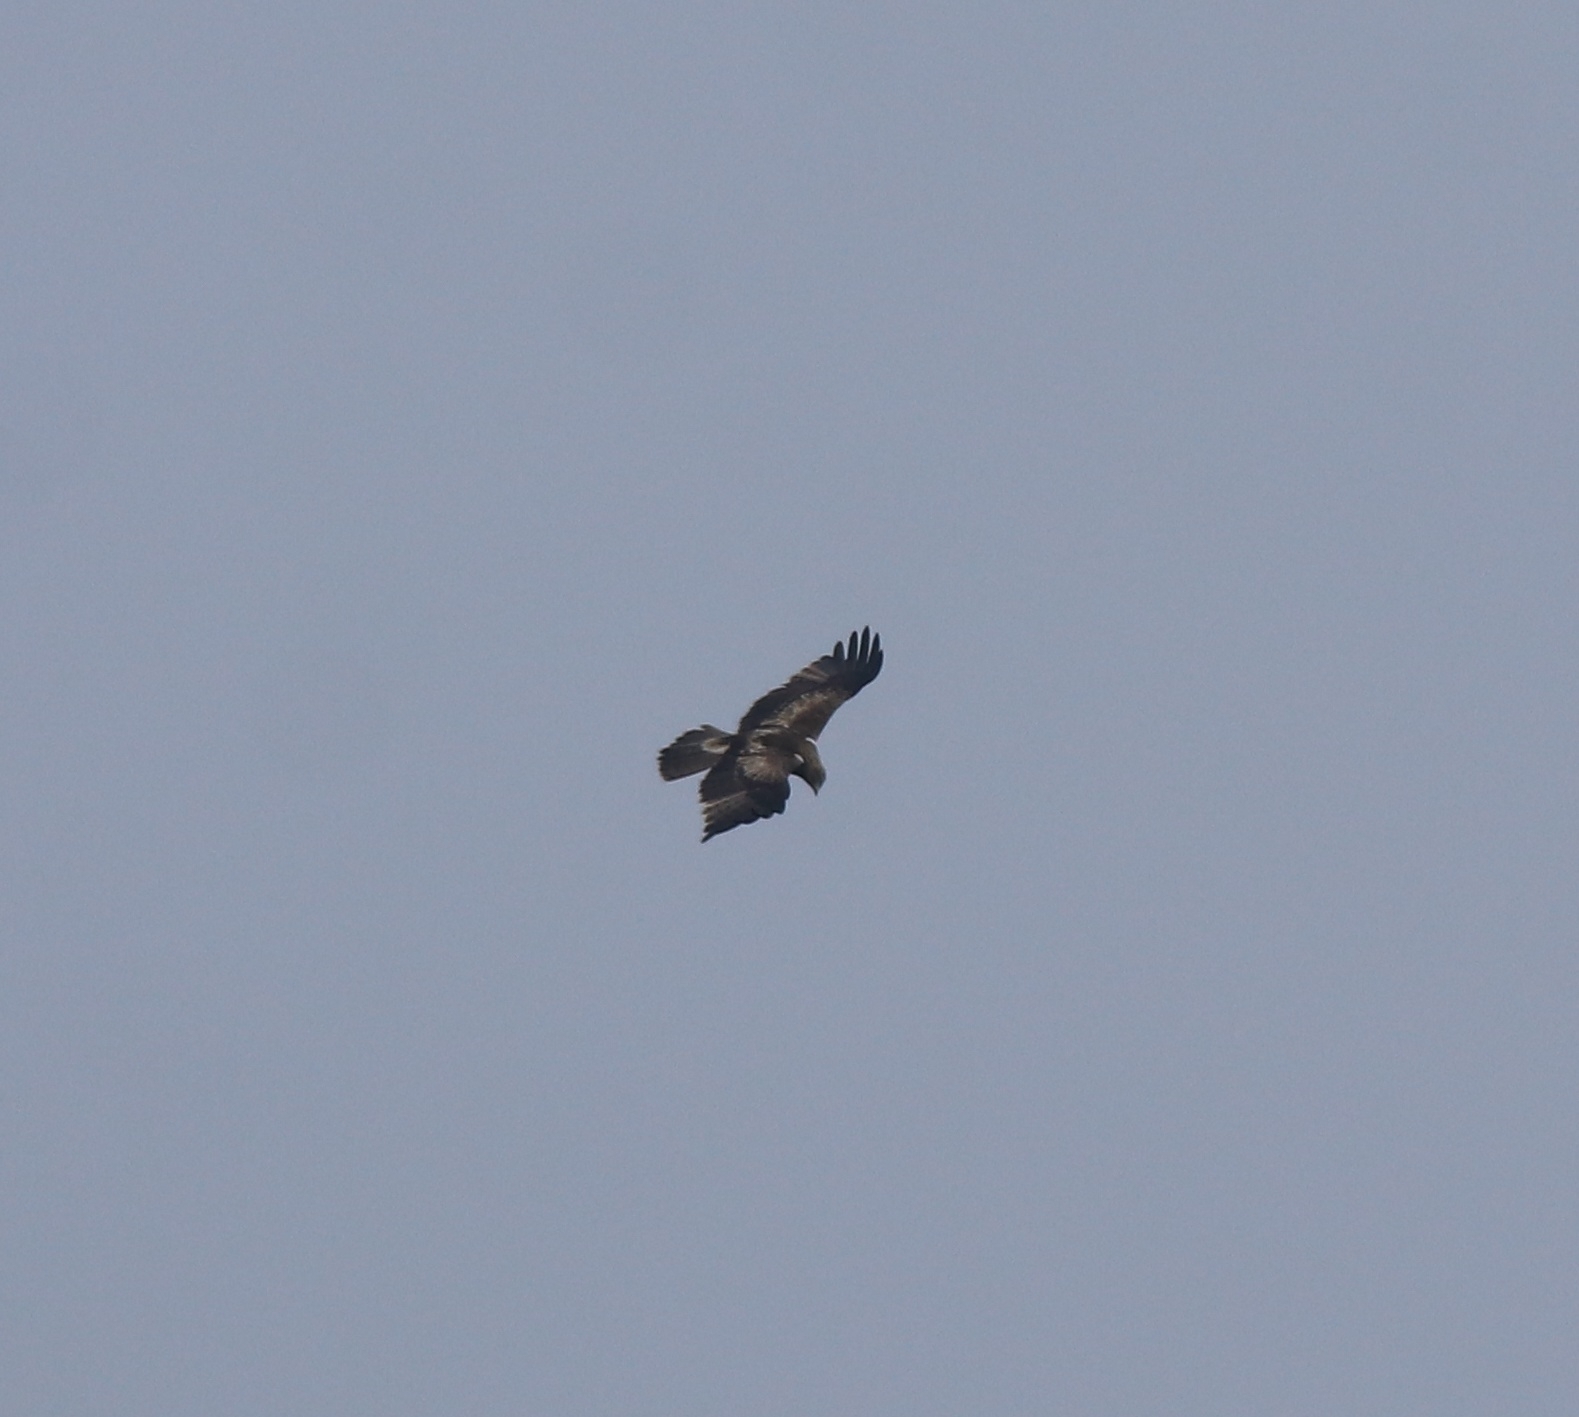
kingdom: Animalia
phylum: Chordata
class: Aves
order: Accipitriformes
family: Accipitridae
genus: Hieraaetus
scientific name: Hieraaetus pennatus
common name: Booted eagle
